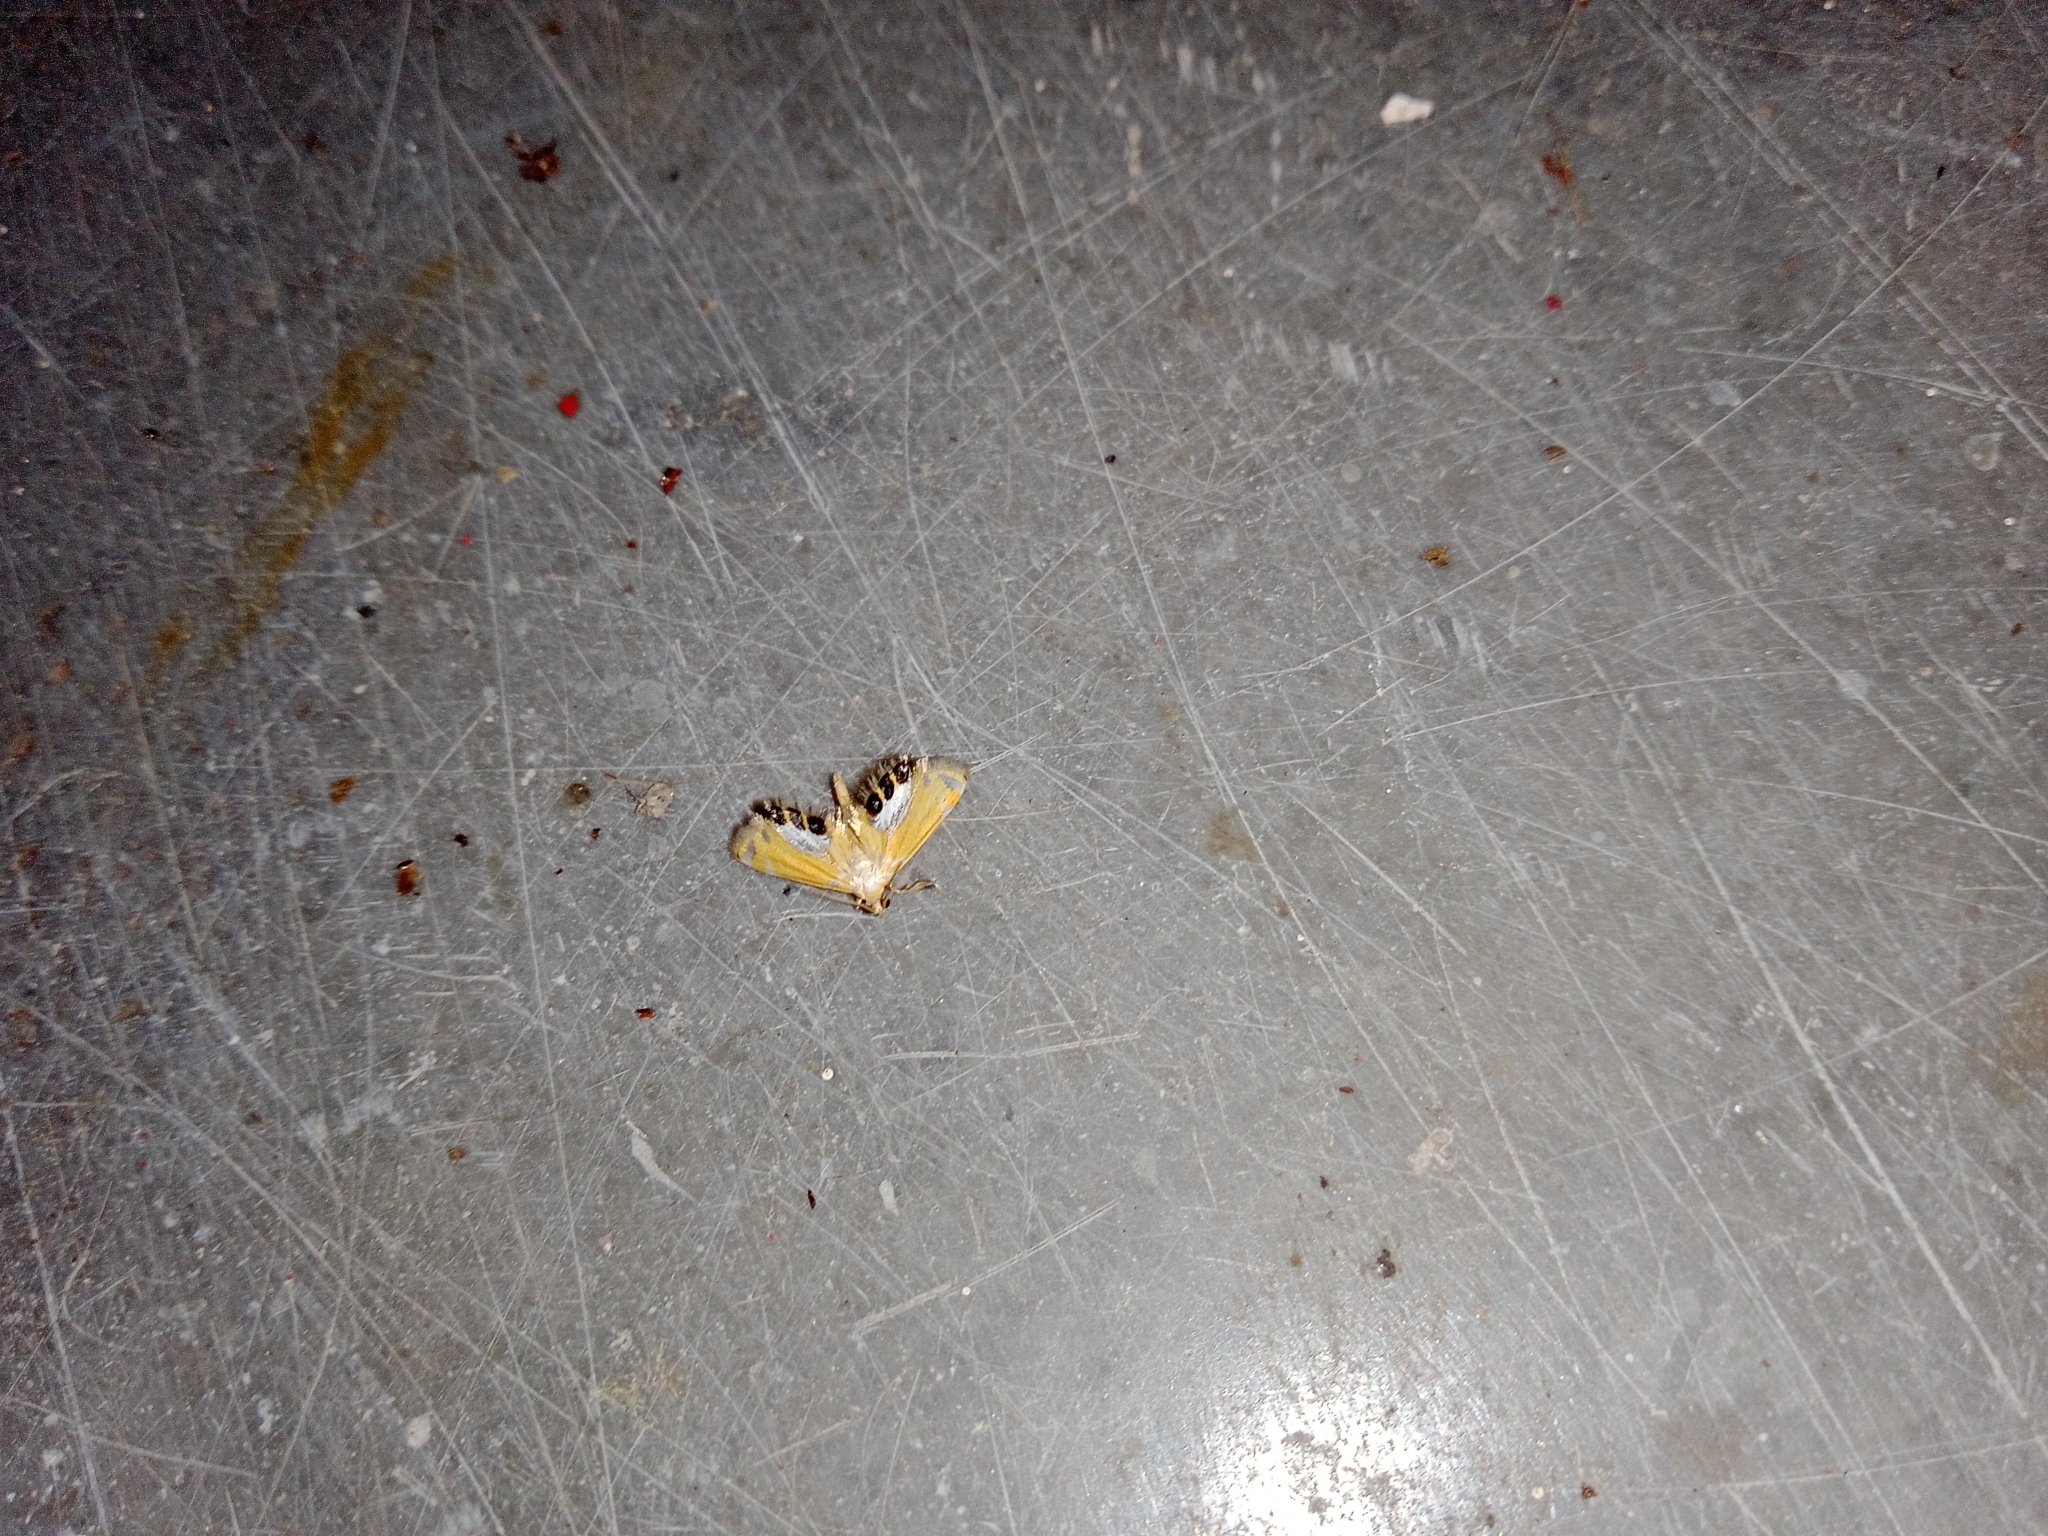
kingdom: Animalia
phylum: Arthropoda
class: Insecta
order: Lepidoptera
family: Crambidae
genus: Nymphicula
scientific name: Nymphicula
